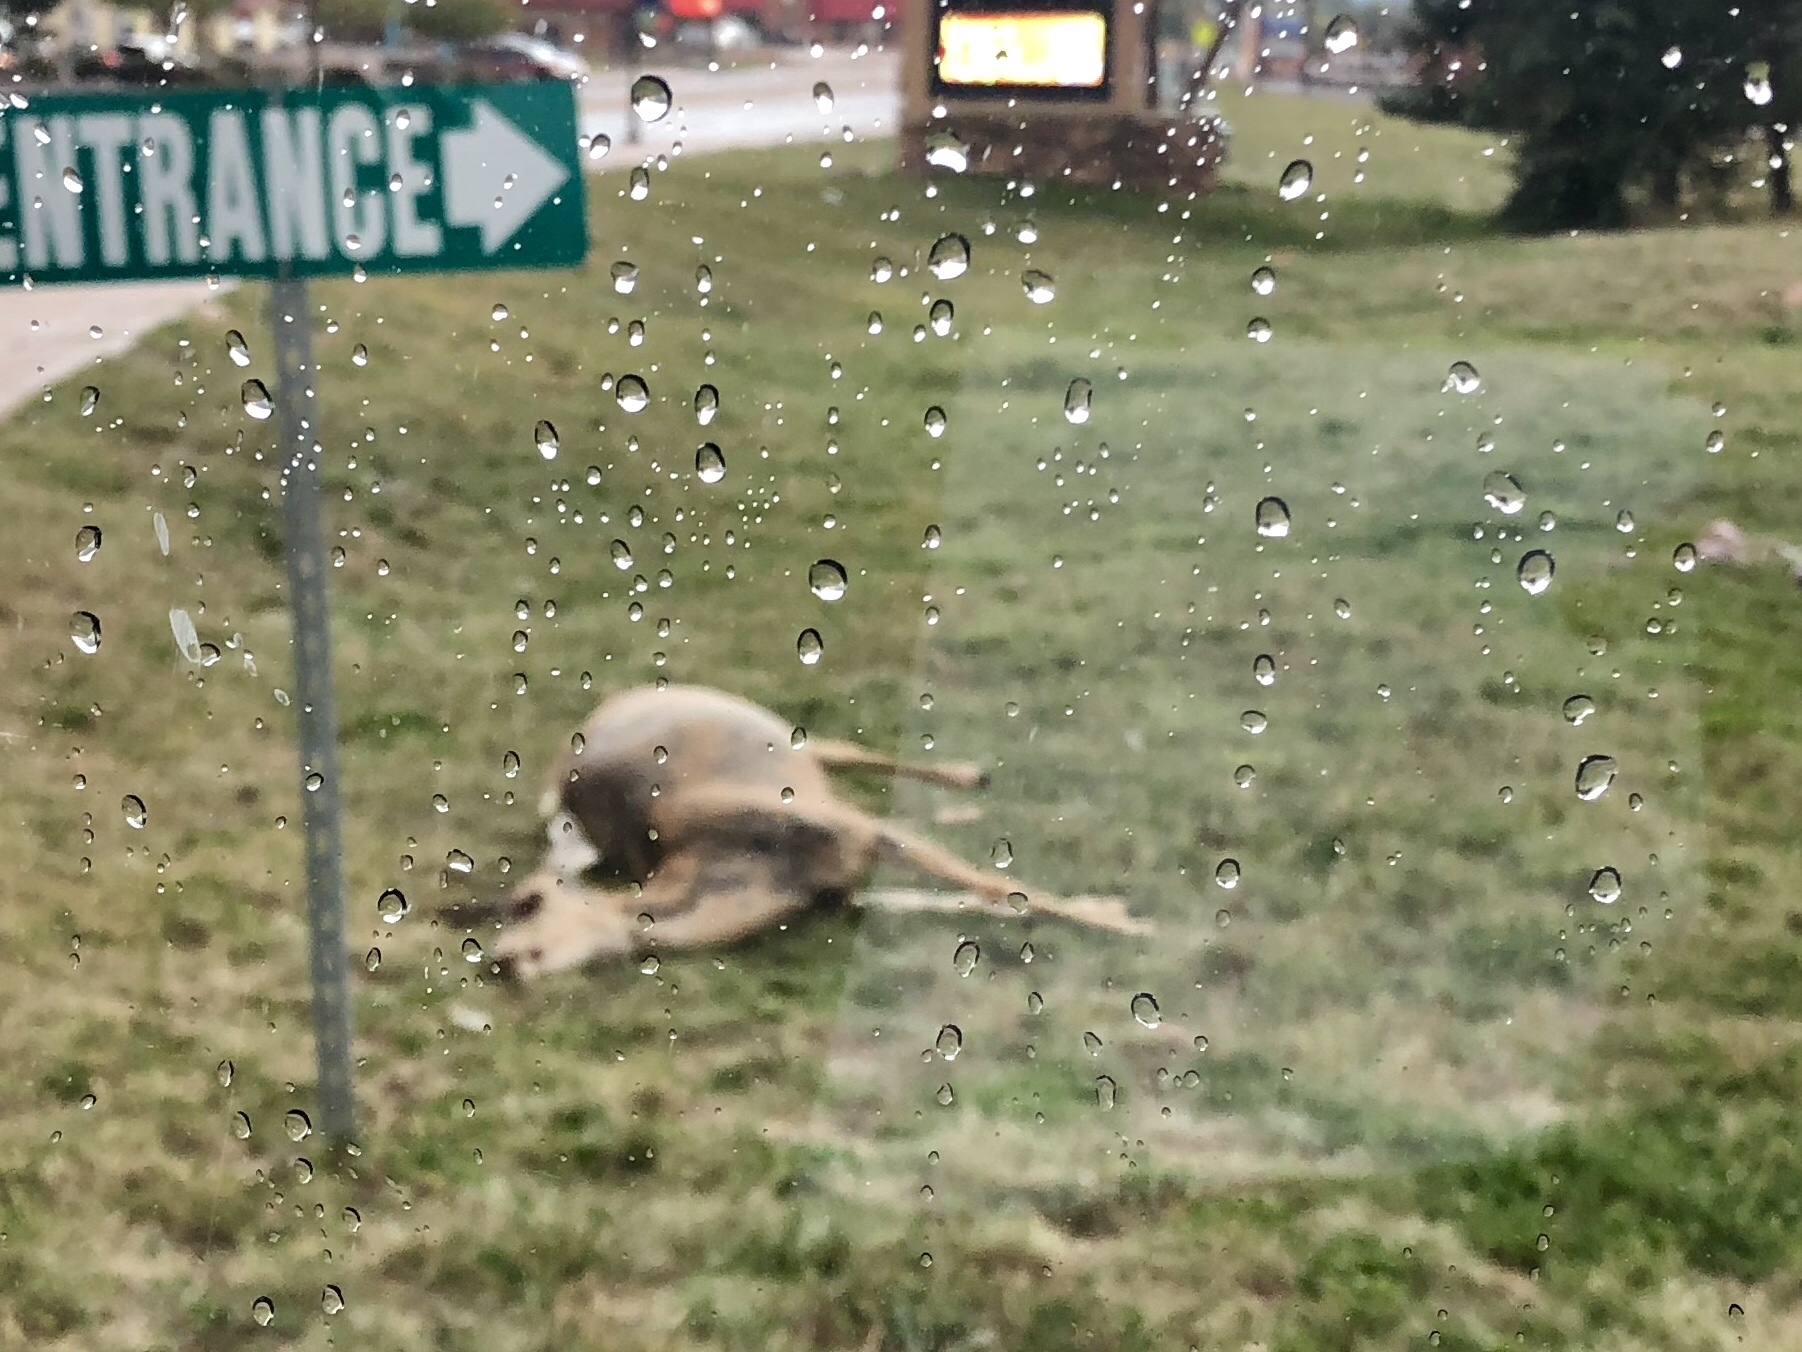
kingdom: Animalia
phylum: Chordata
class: Mammalia
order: Artiodactyla
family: Cervidae
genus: Odocoileus
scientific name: Odocoileus hemionus
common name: Mule deer
